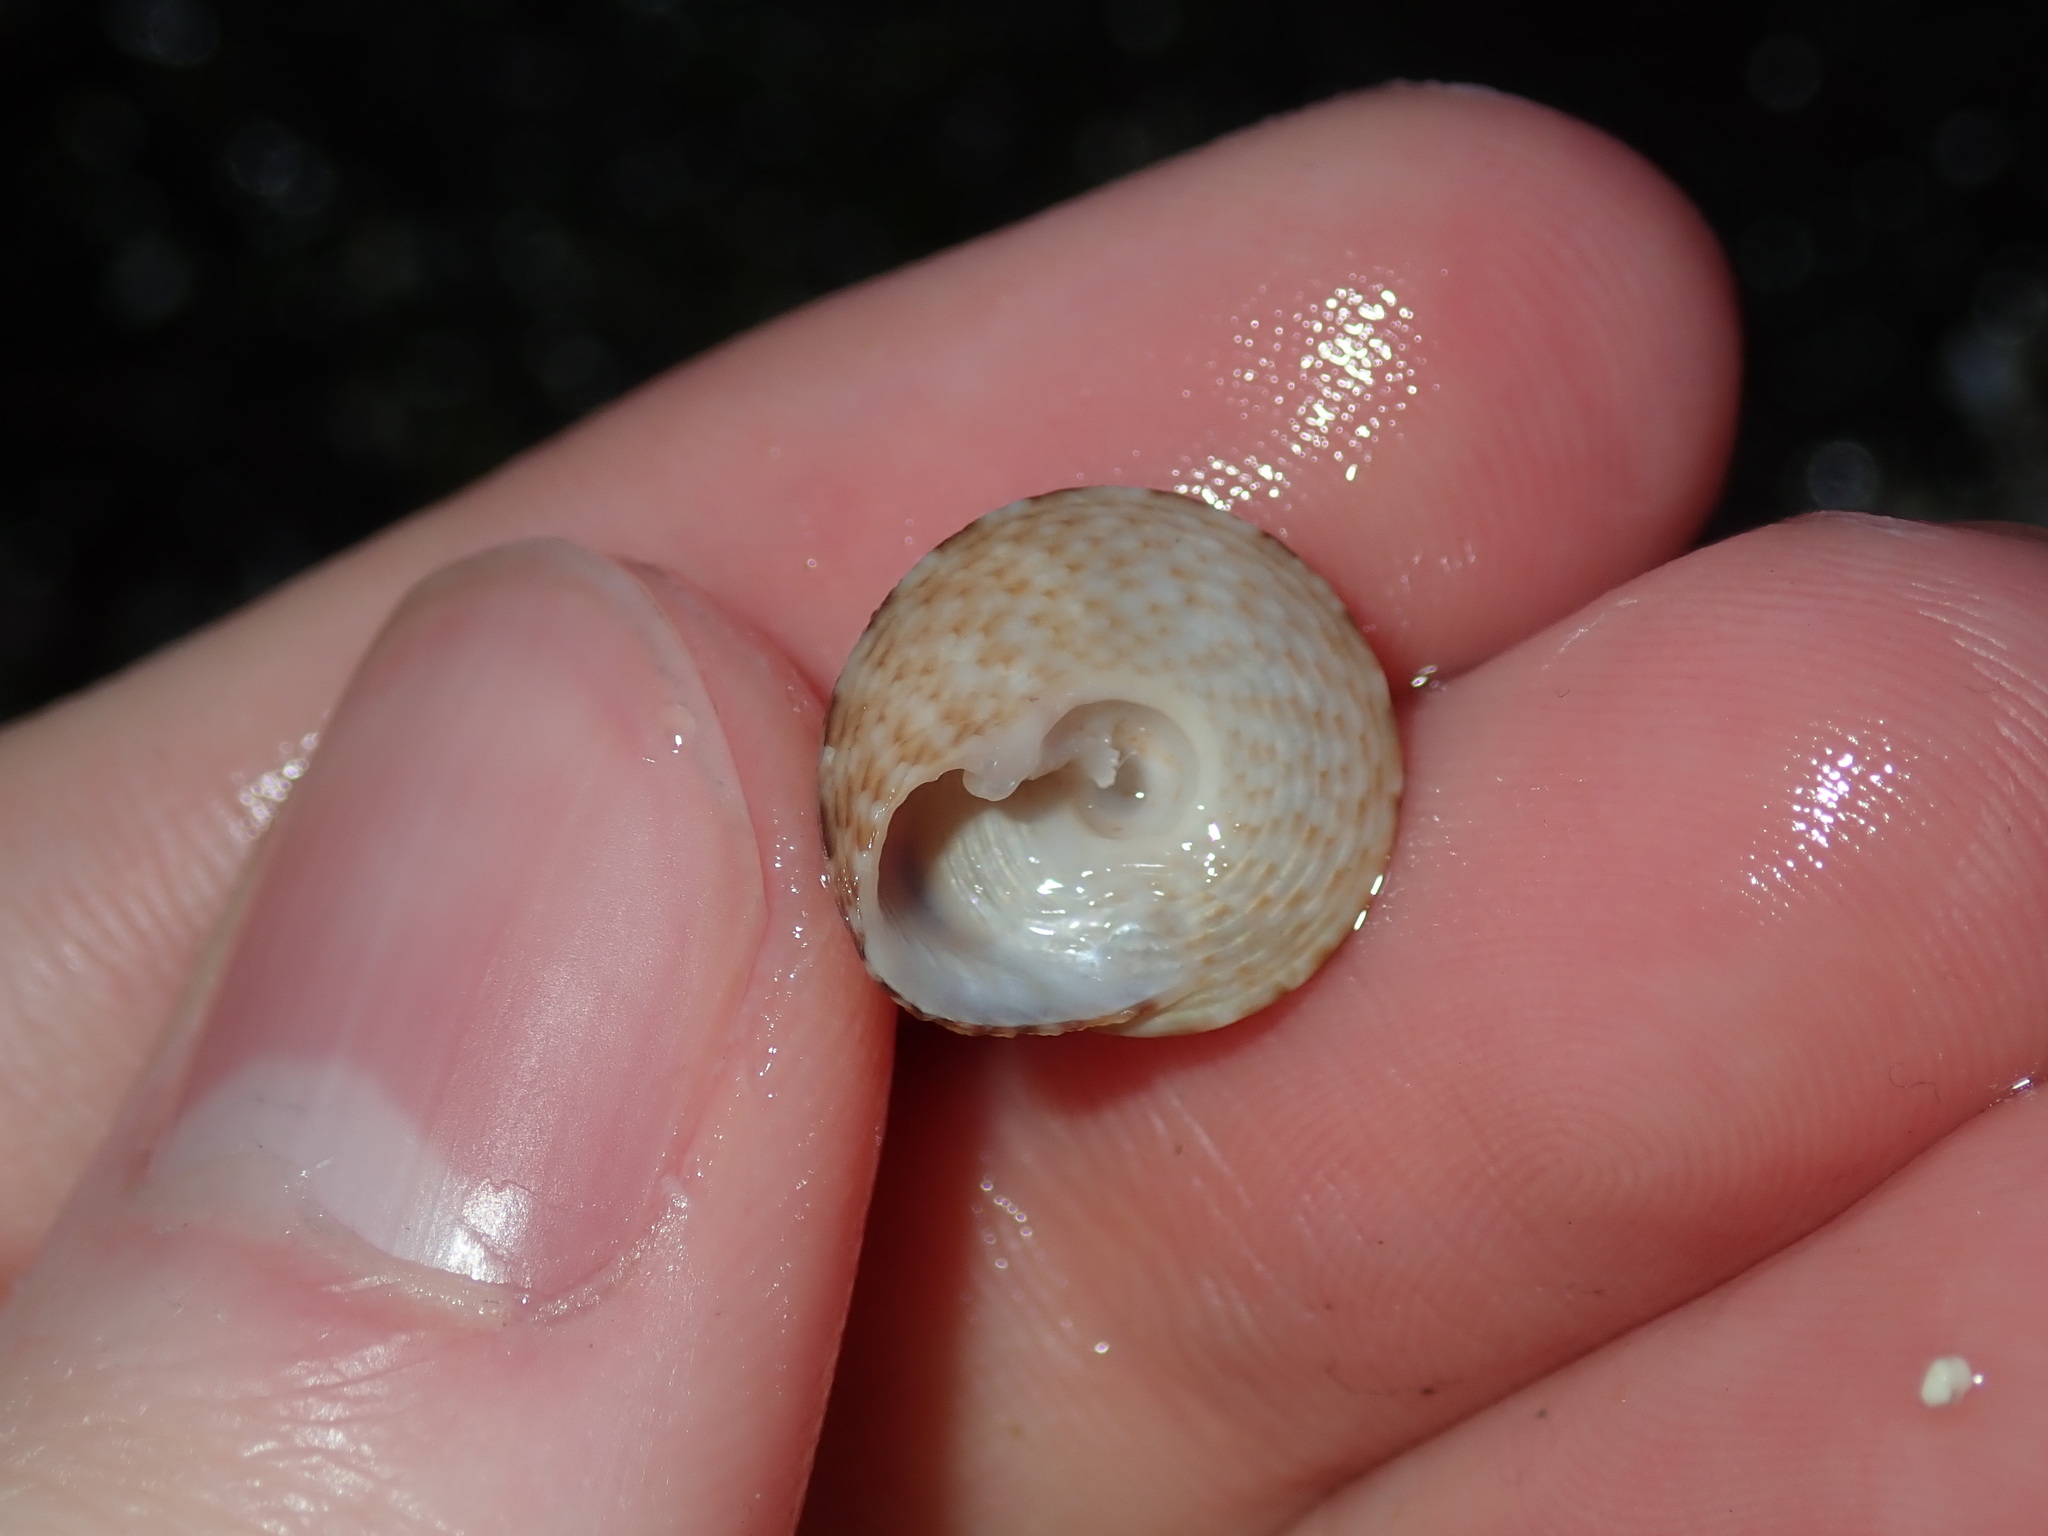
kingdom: Animalia
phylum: Mollusca
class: Gastropoda
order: Trochida
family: Trochidae
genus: Clanculus
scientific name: Clanculus brunneus
